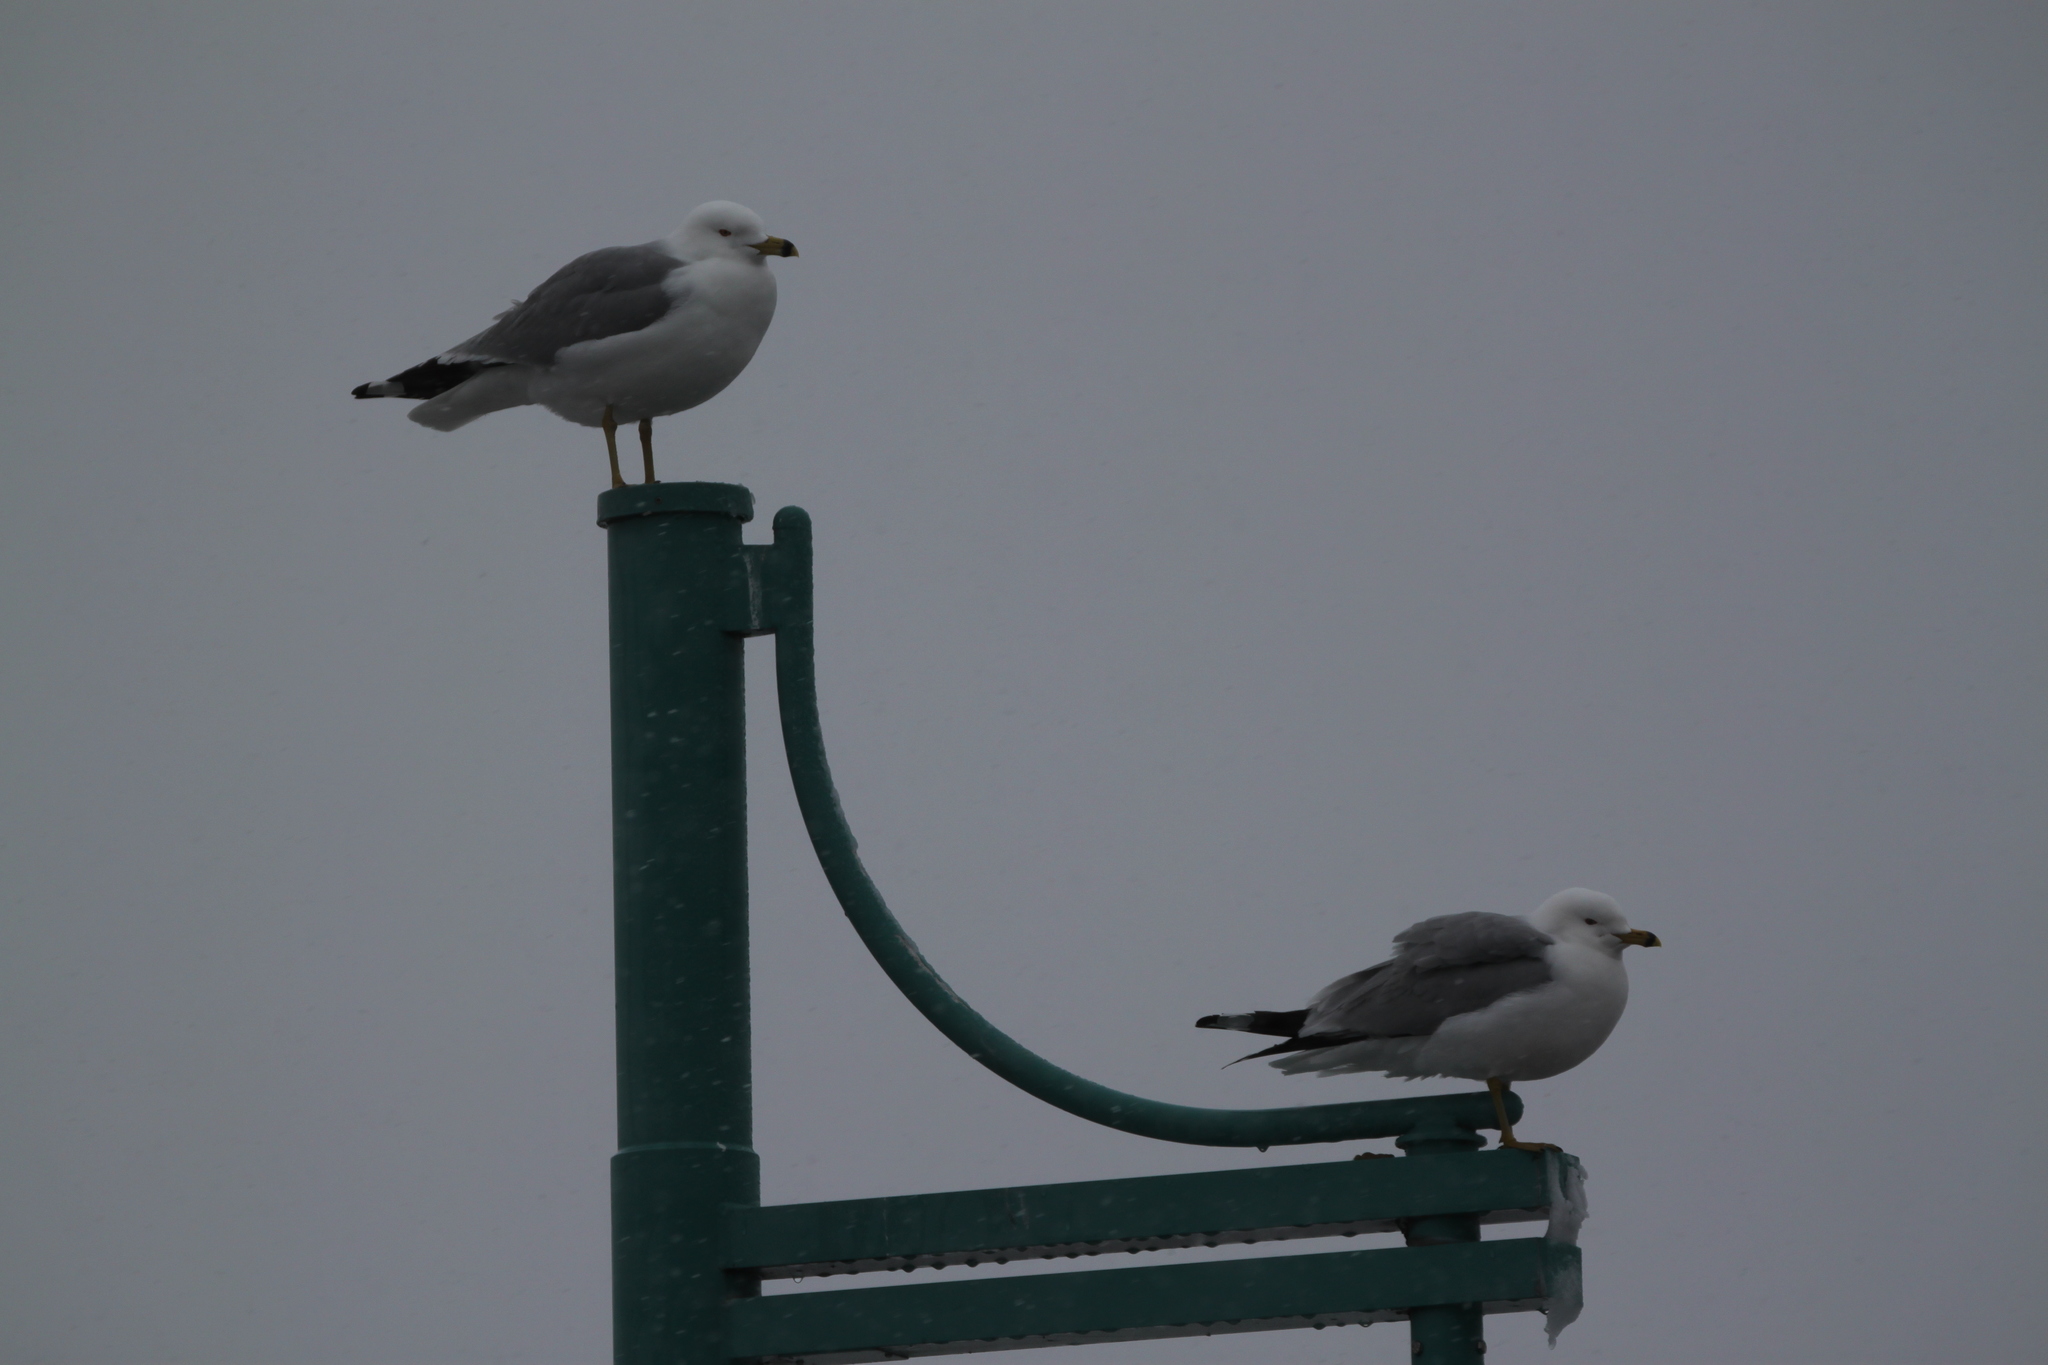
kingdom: Animalia
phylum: Chordata
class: Aves
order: Charadriiformes
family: Laridae
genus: Larus
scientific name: Larus delawarensis
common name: Ring-billed gull
